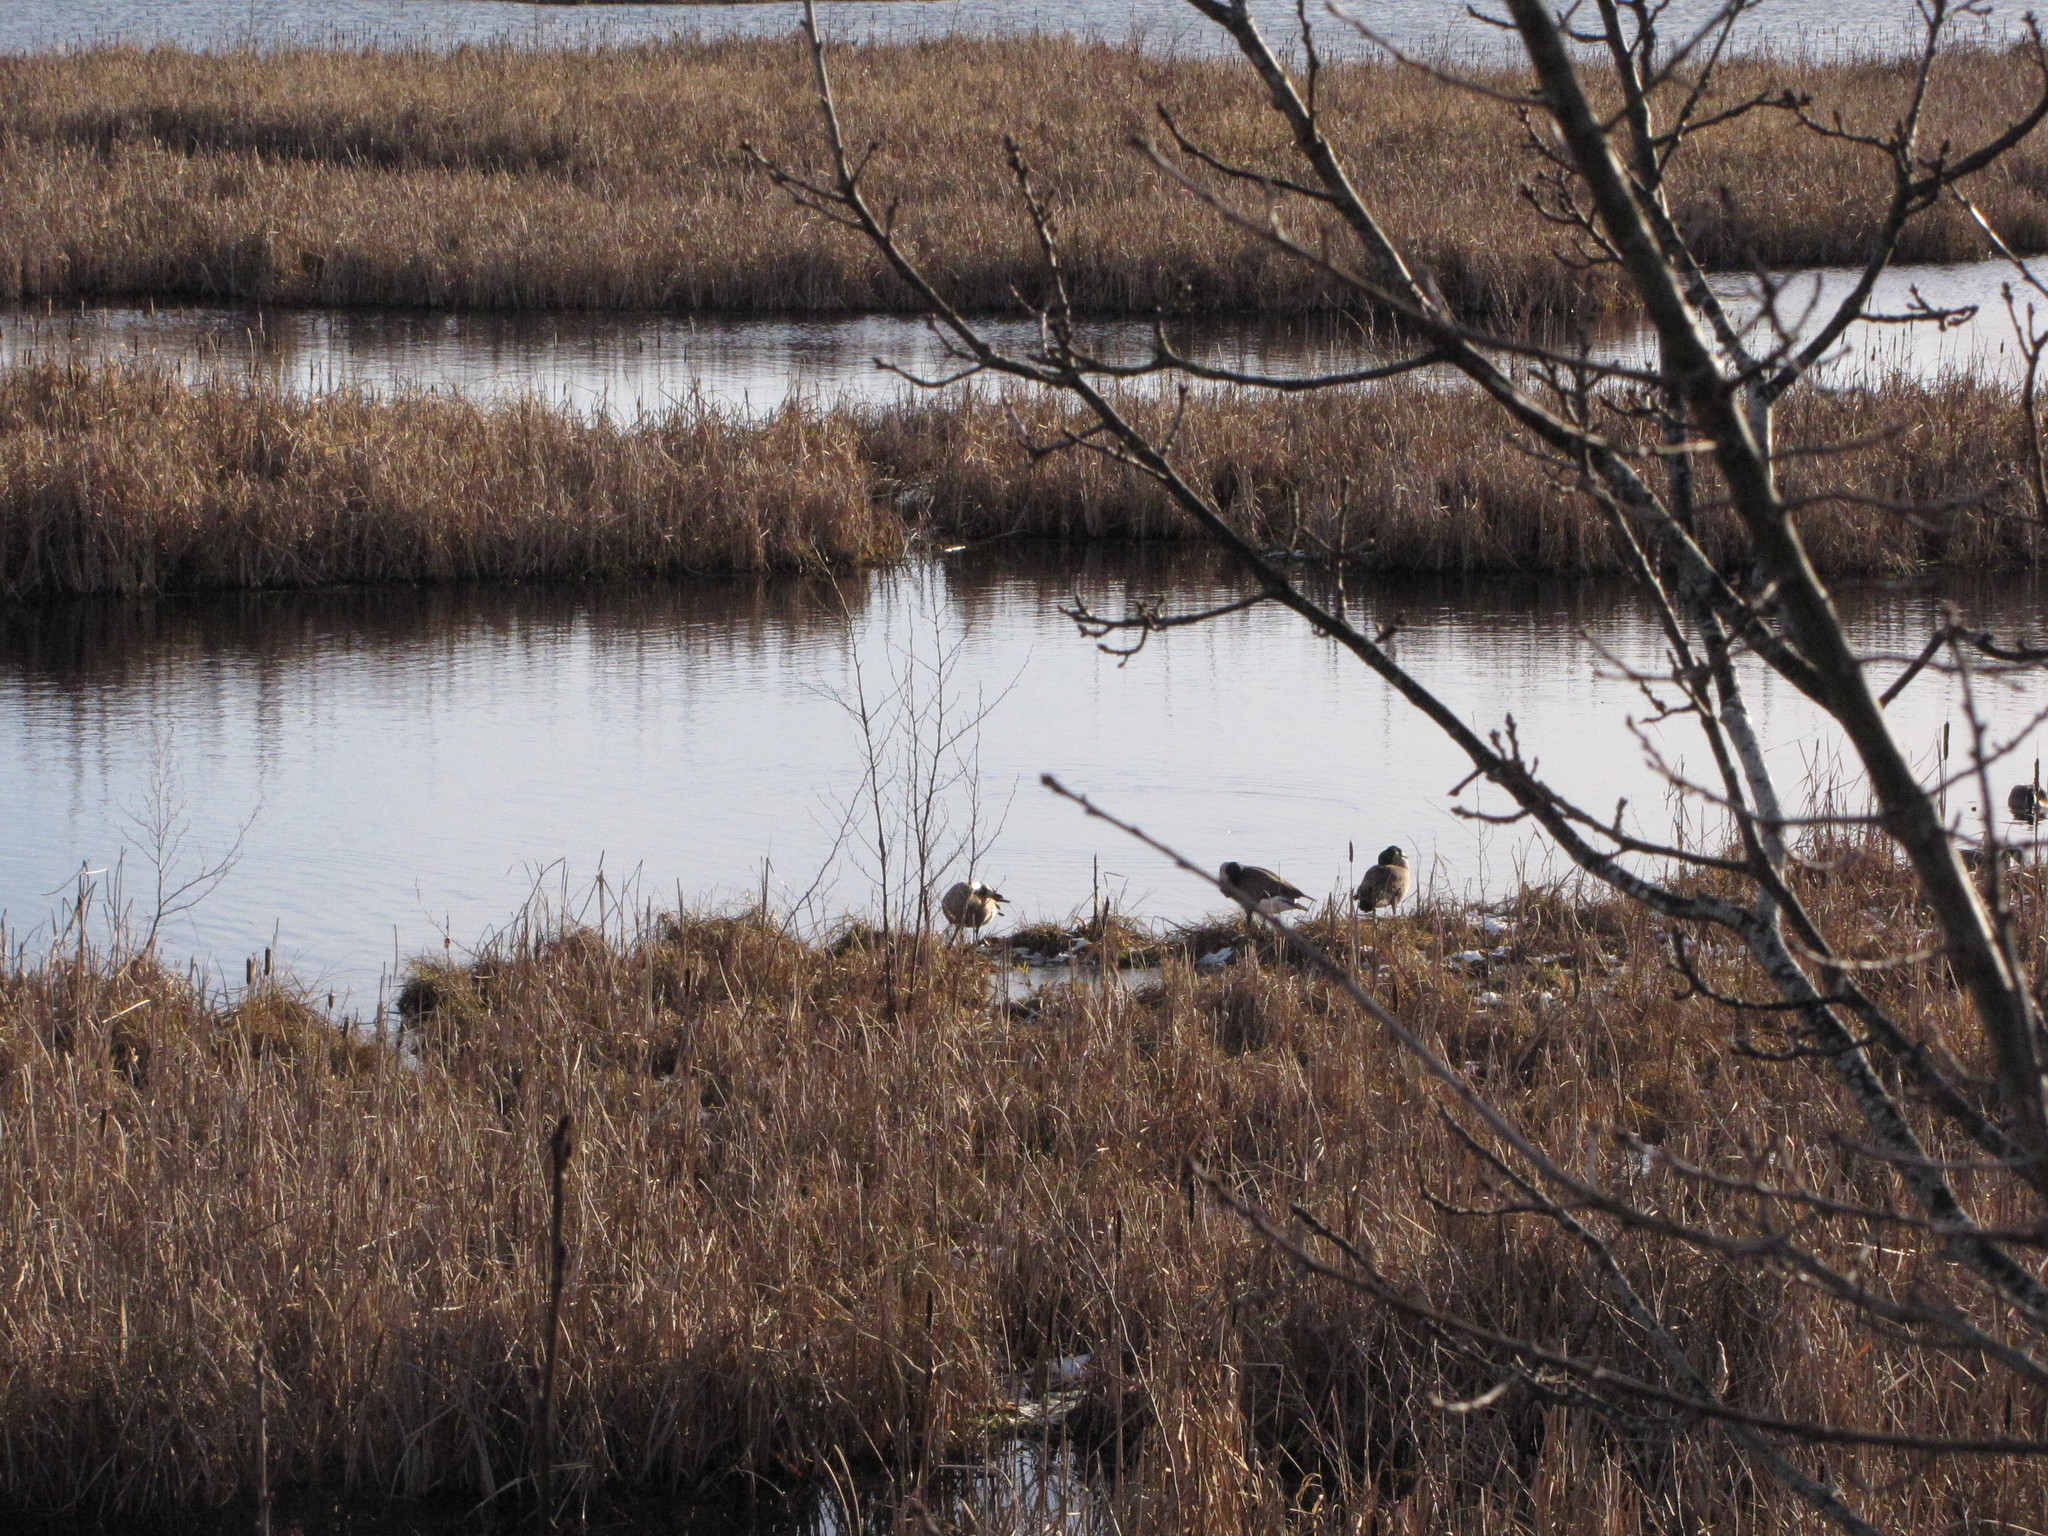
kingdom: Animalia
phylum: Chordata
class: Aves
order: Anseriformes
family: Anatidae
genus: Branta
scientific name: Branta canadensis
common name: Canada goose
